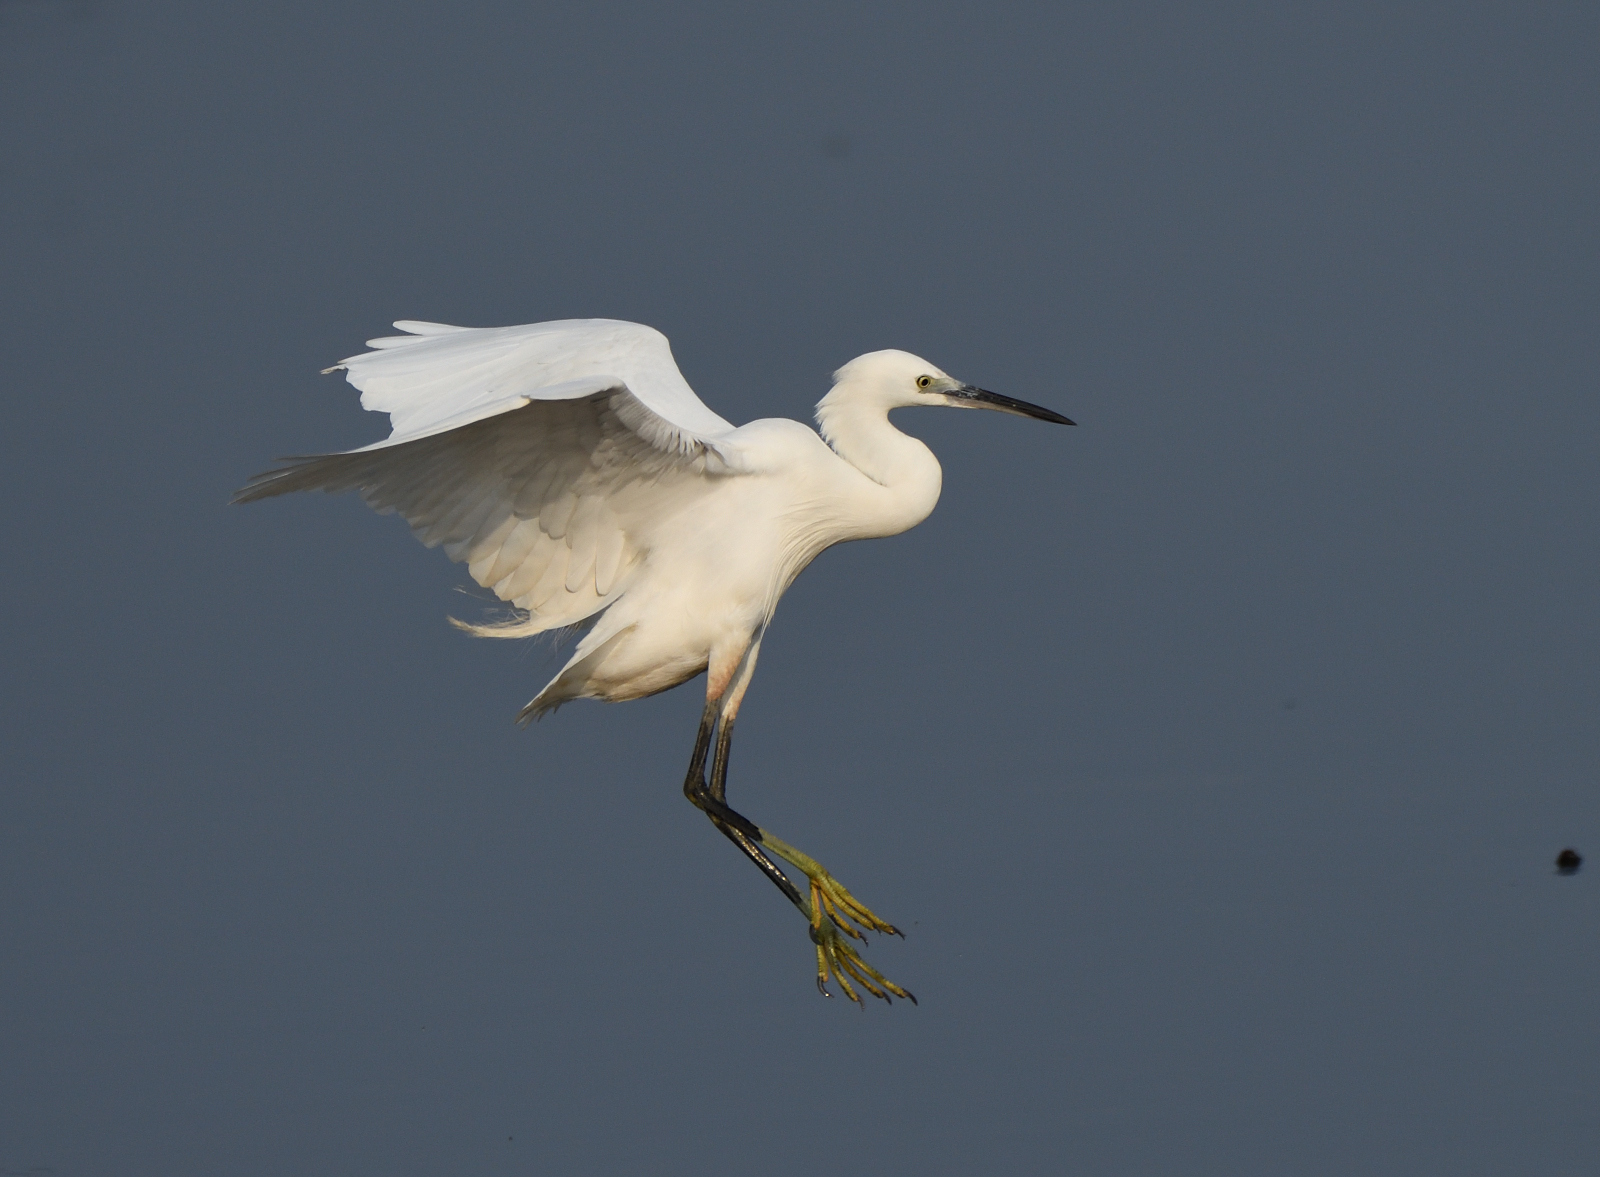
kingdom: Animalia
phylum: Chordata
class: Aves
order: Pelecaniformes
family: Ardeidae
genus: Egretta
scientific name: Egretta garzetta
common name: Little egret
